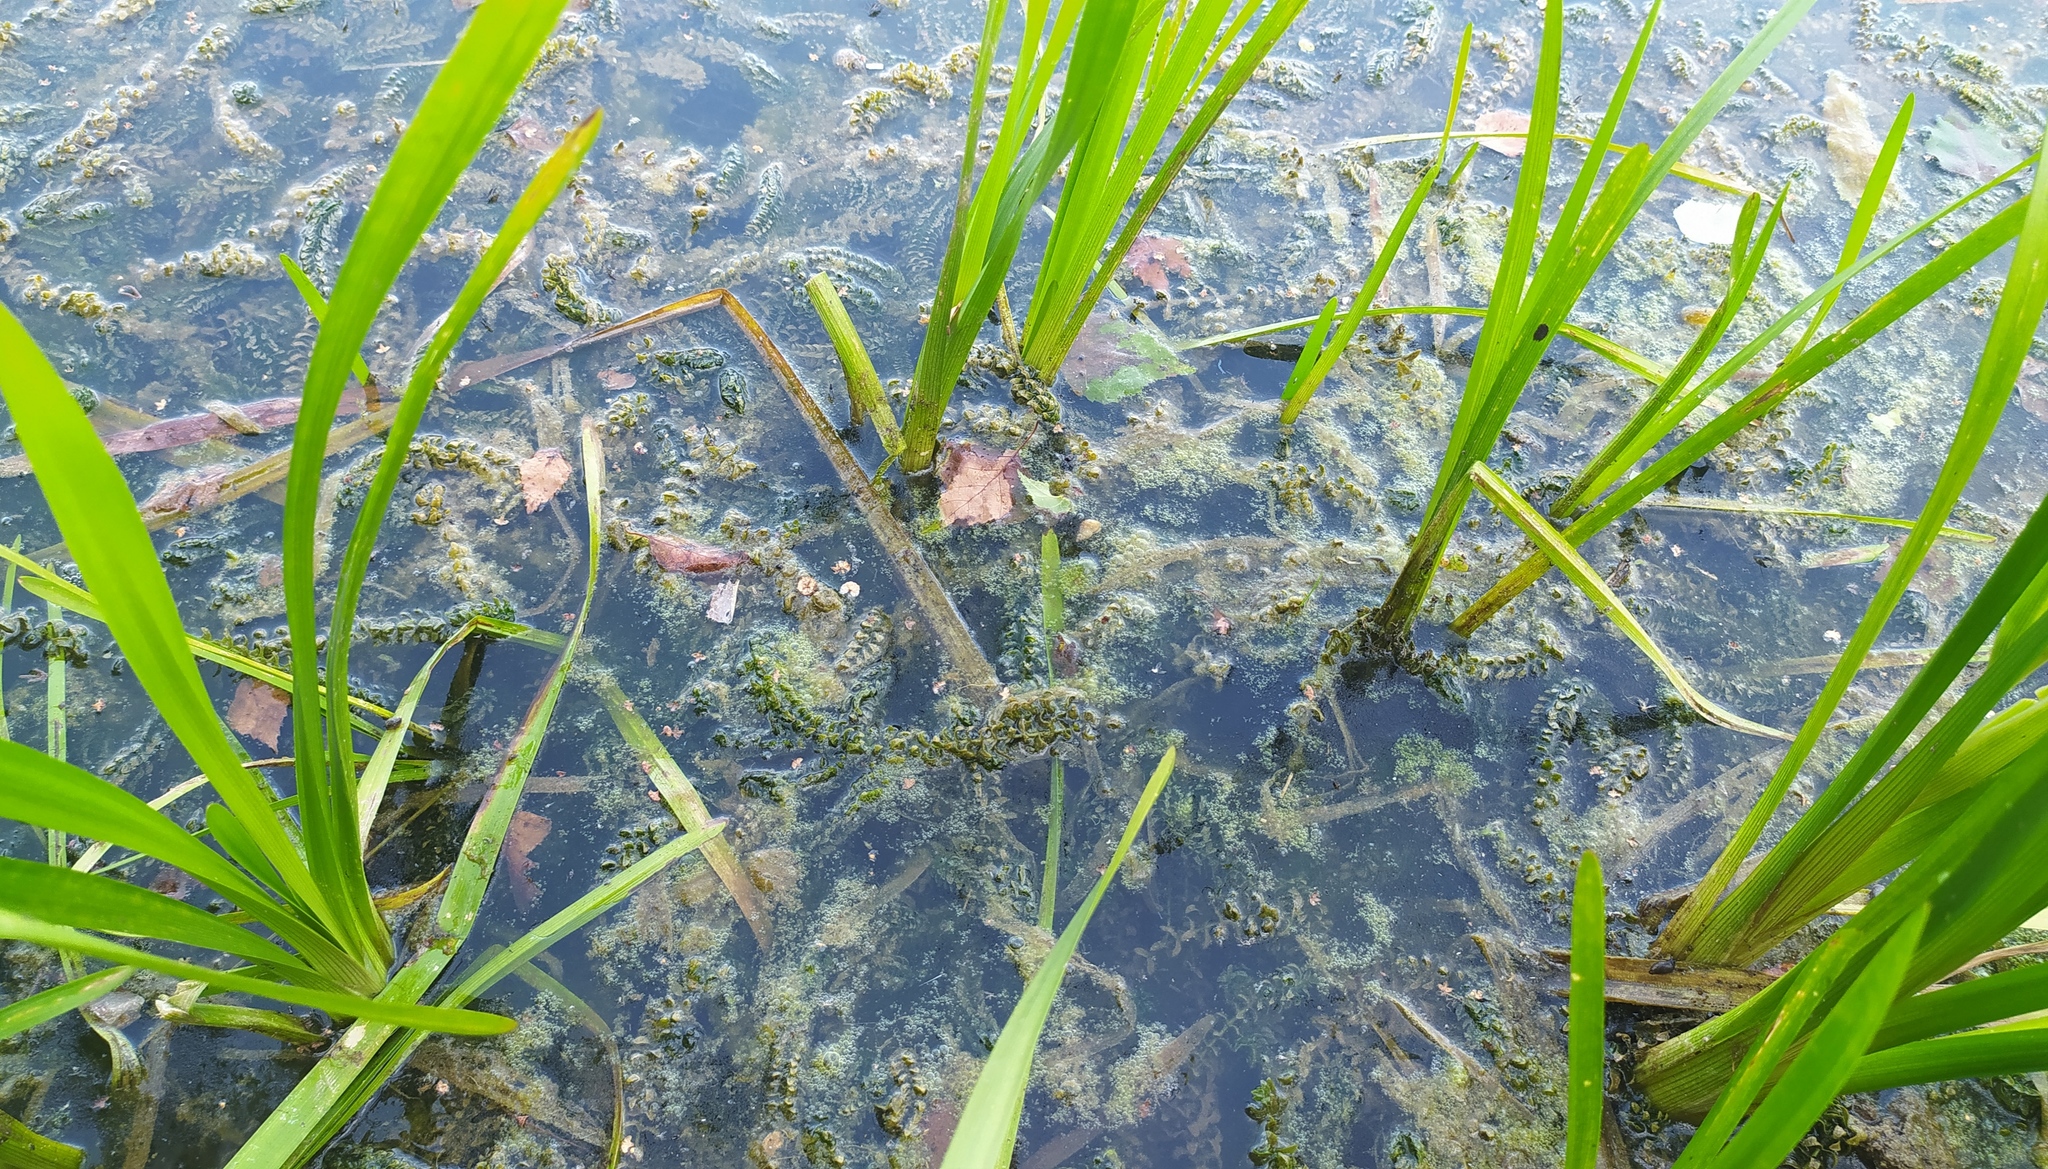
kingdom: Plantae
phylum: Tracheophyta
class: Liliopsida
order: Alismatales
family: Hydrocharitaceae
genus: Elodea
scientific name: Elodea canadensis
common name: Canadian waterweed
